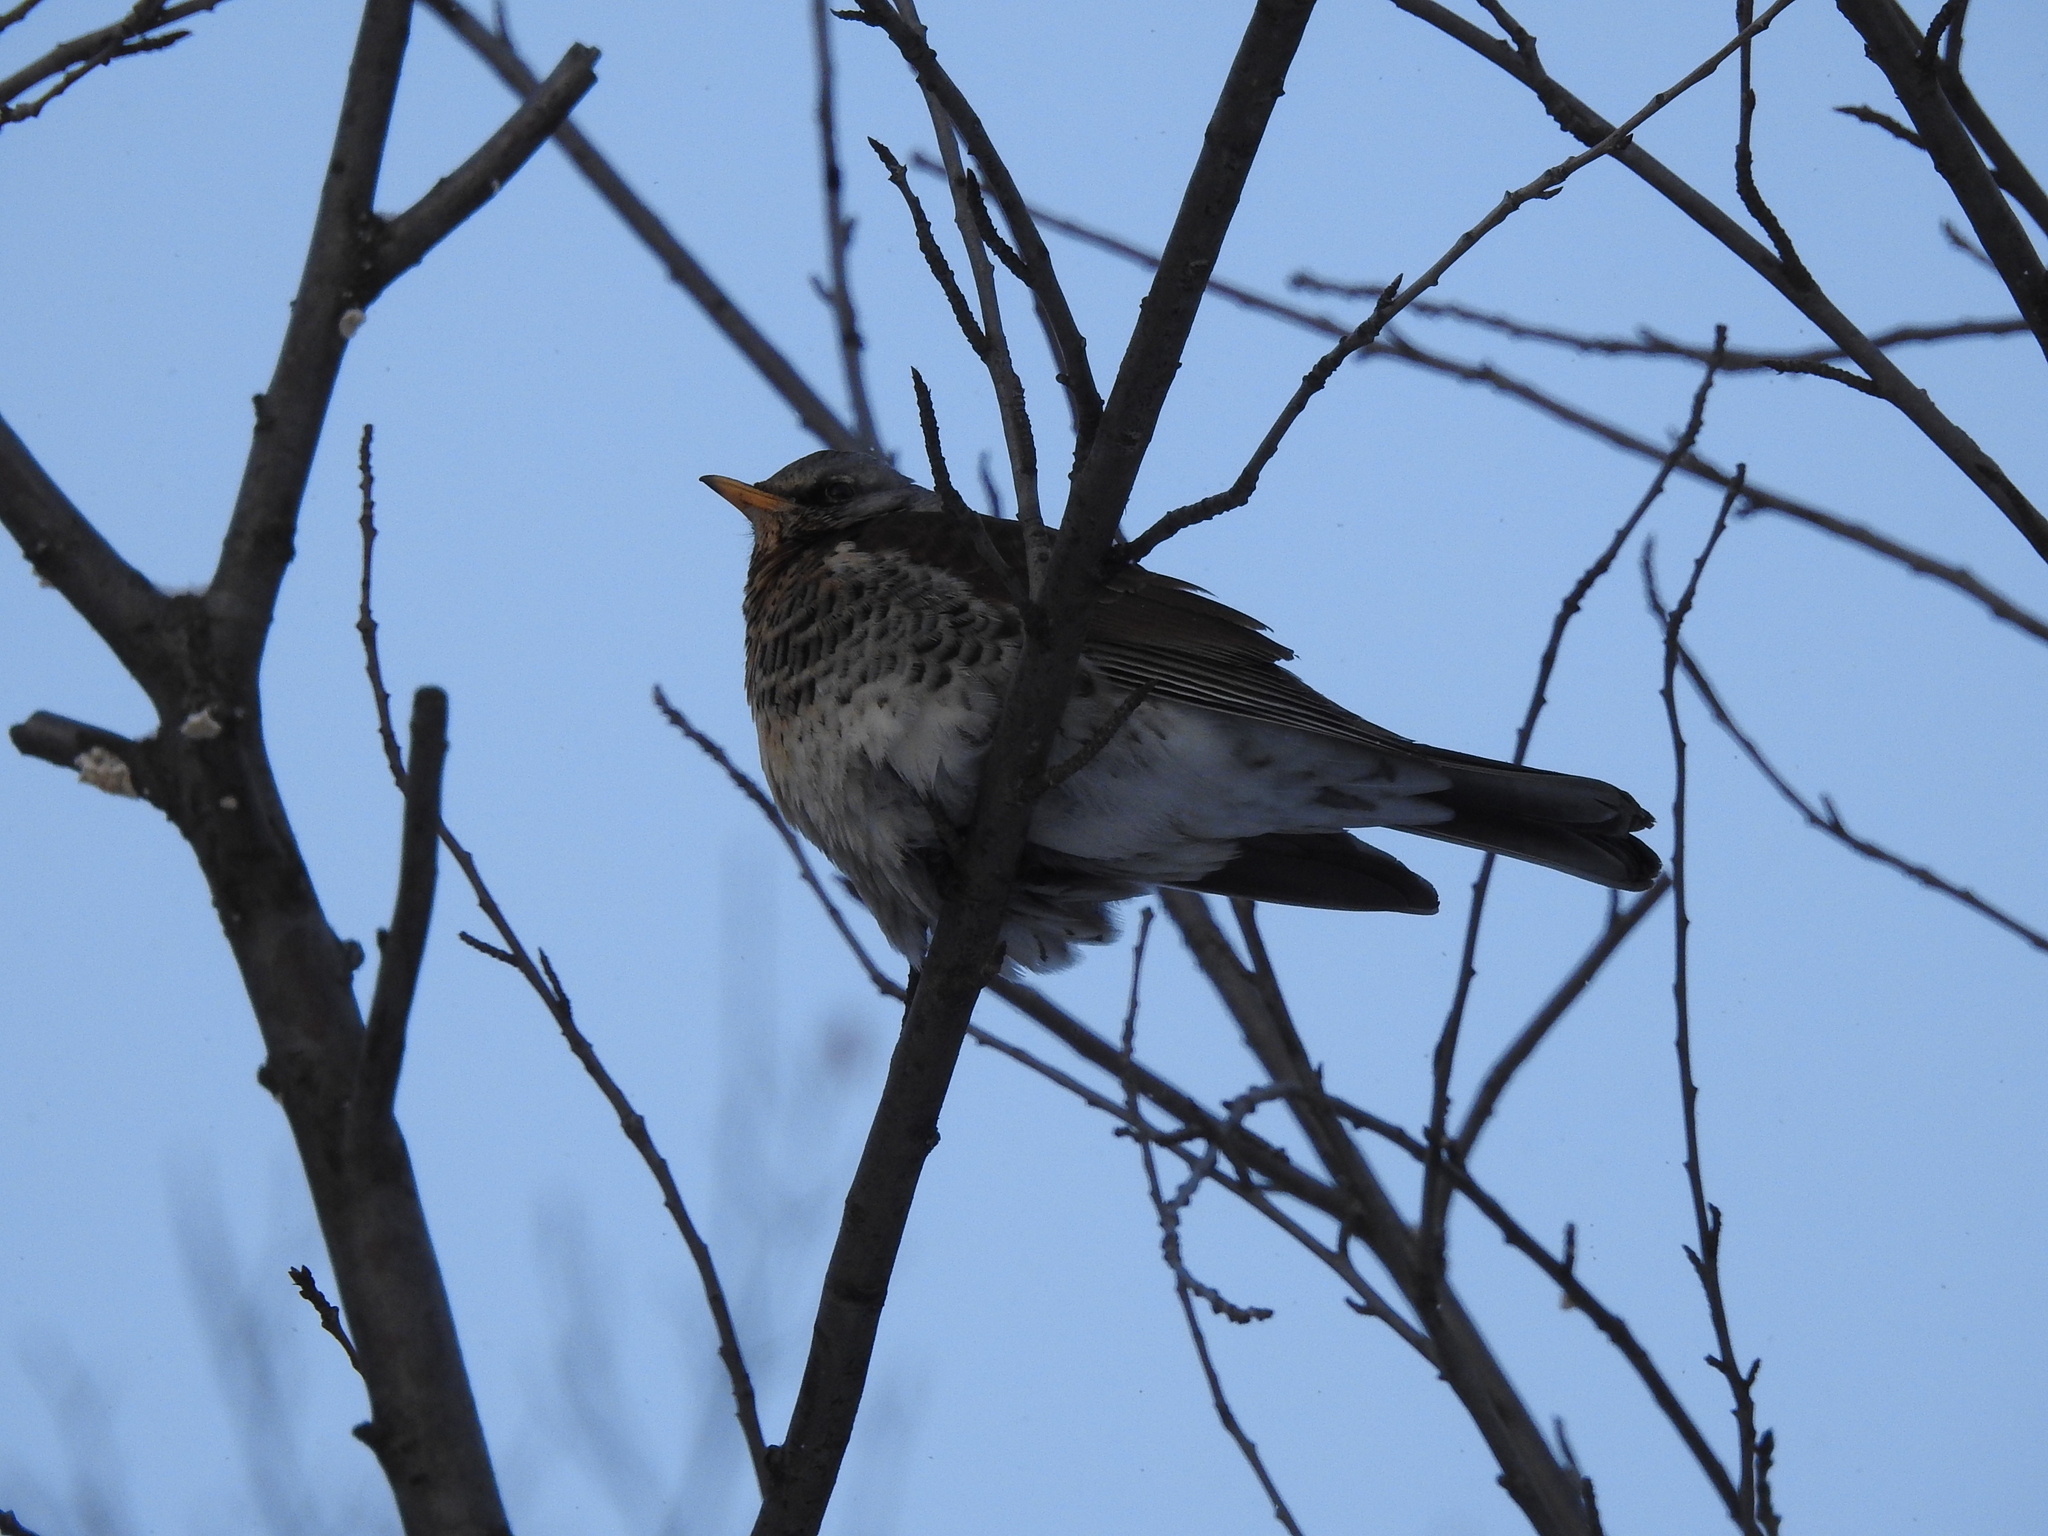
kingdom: Animalia
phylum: Chordata
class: Aves
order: Passeriformes
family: Turdidae
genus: Turdus
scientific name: Turdus pilaris
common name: Fieldfare
